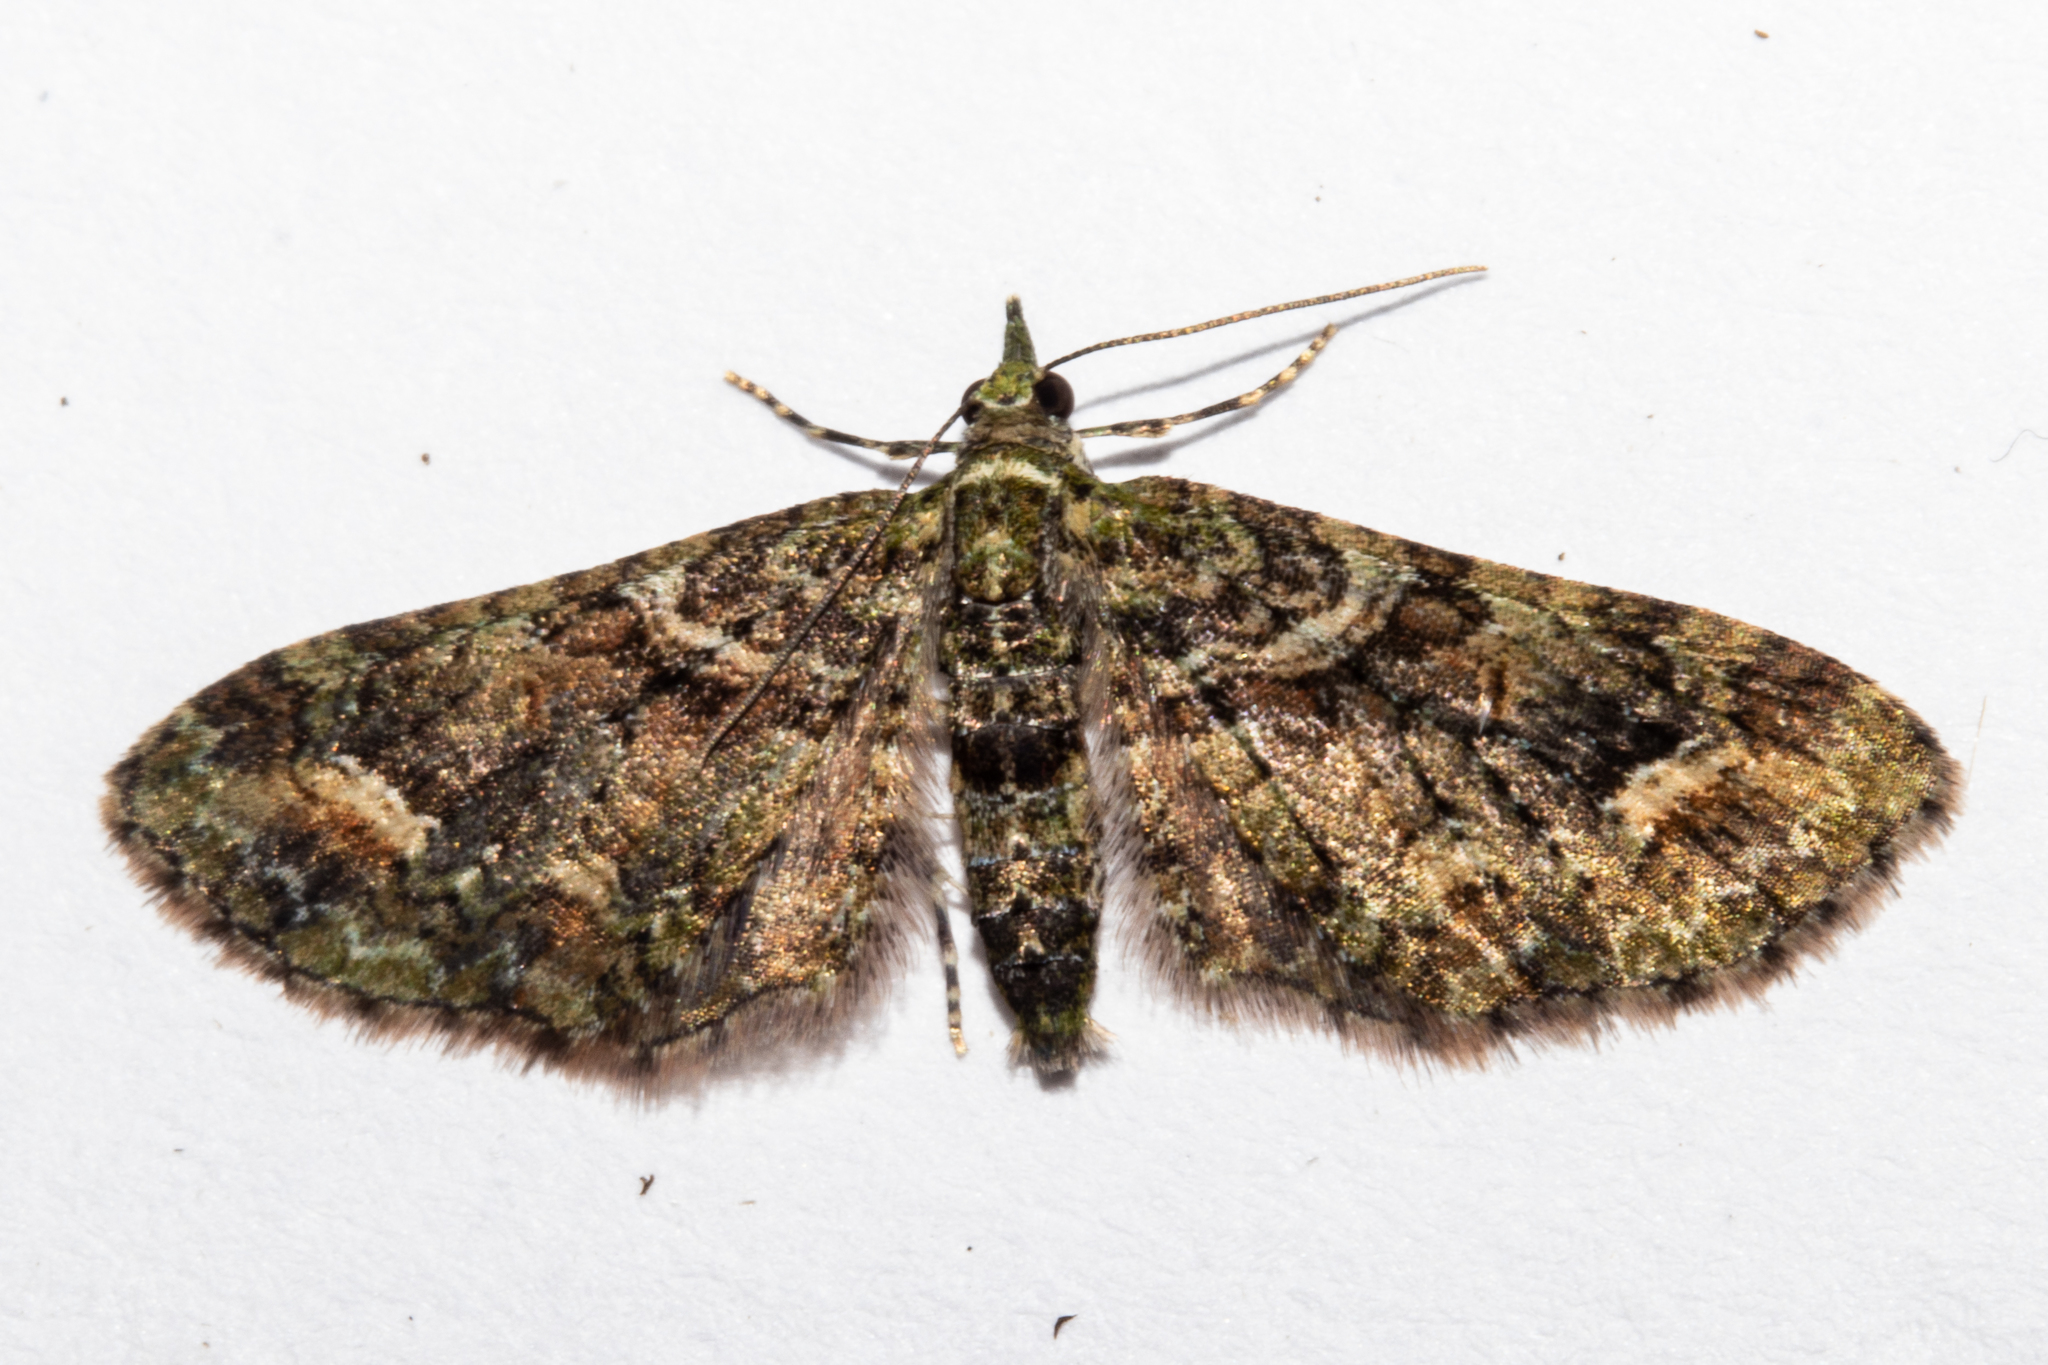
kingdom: Animalia
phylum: Arthropoda
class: Insecta
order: Lepidoptera
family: Geometridae
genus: Idaea
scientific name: Idaea mutanda
